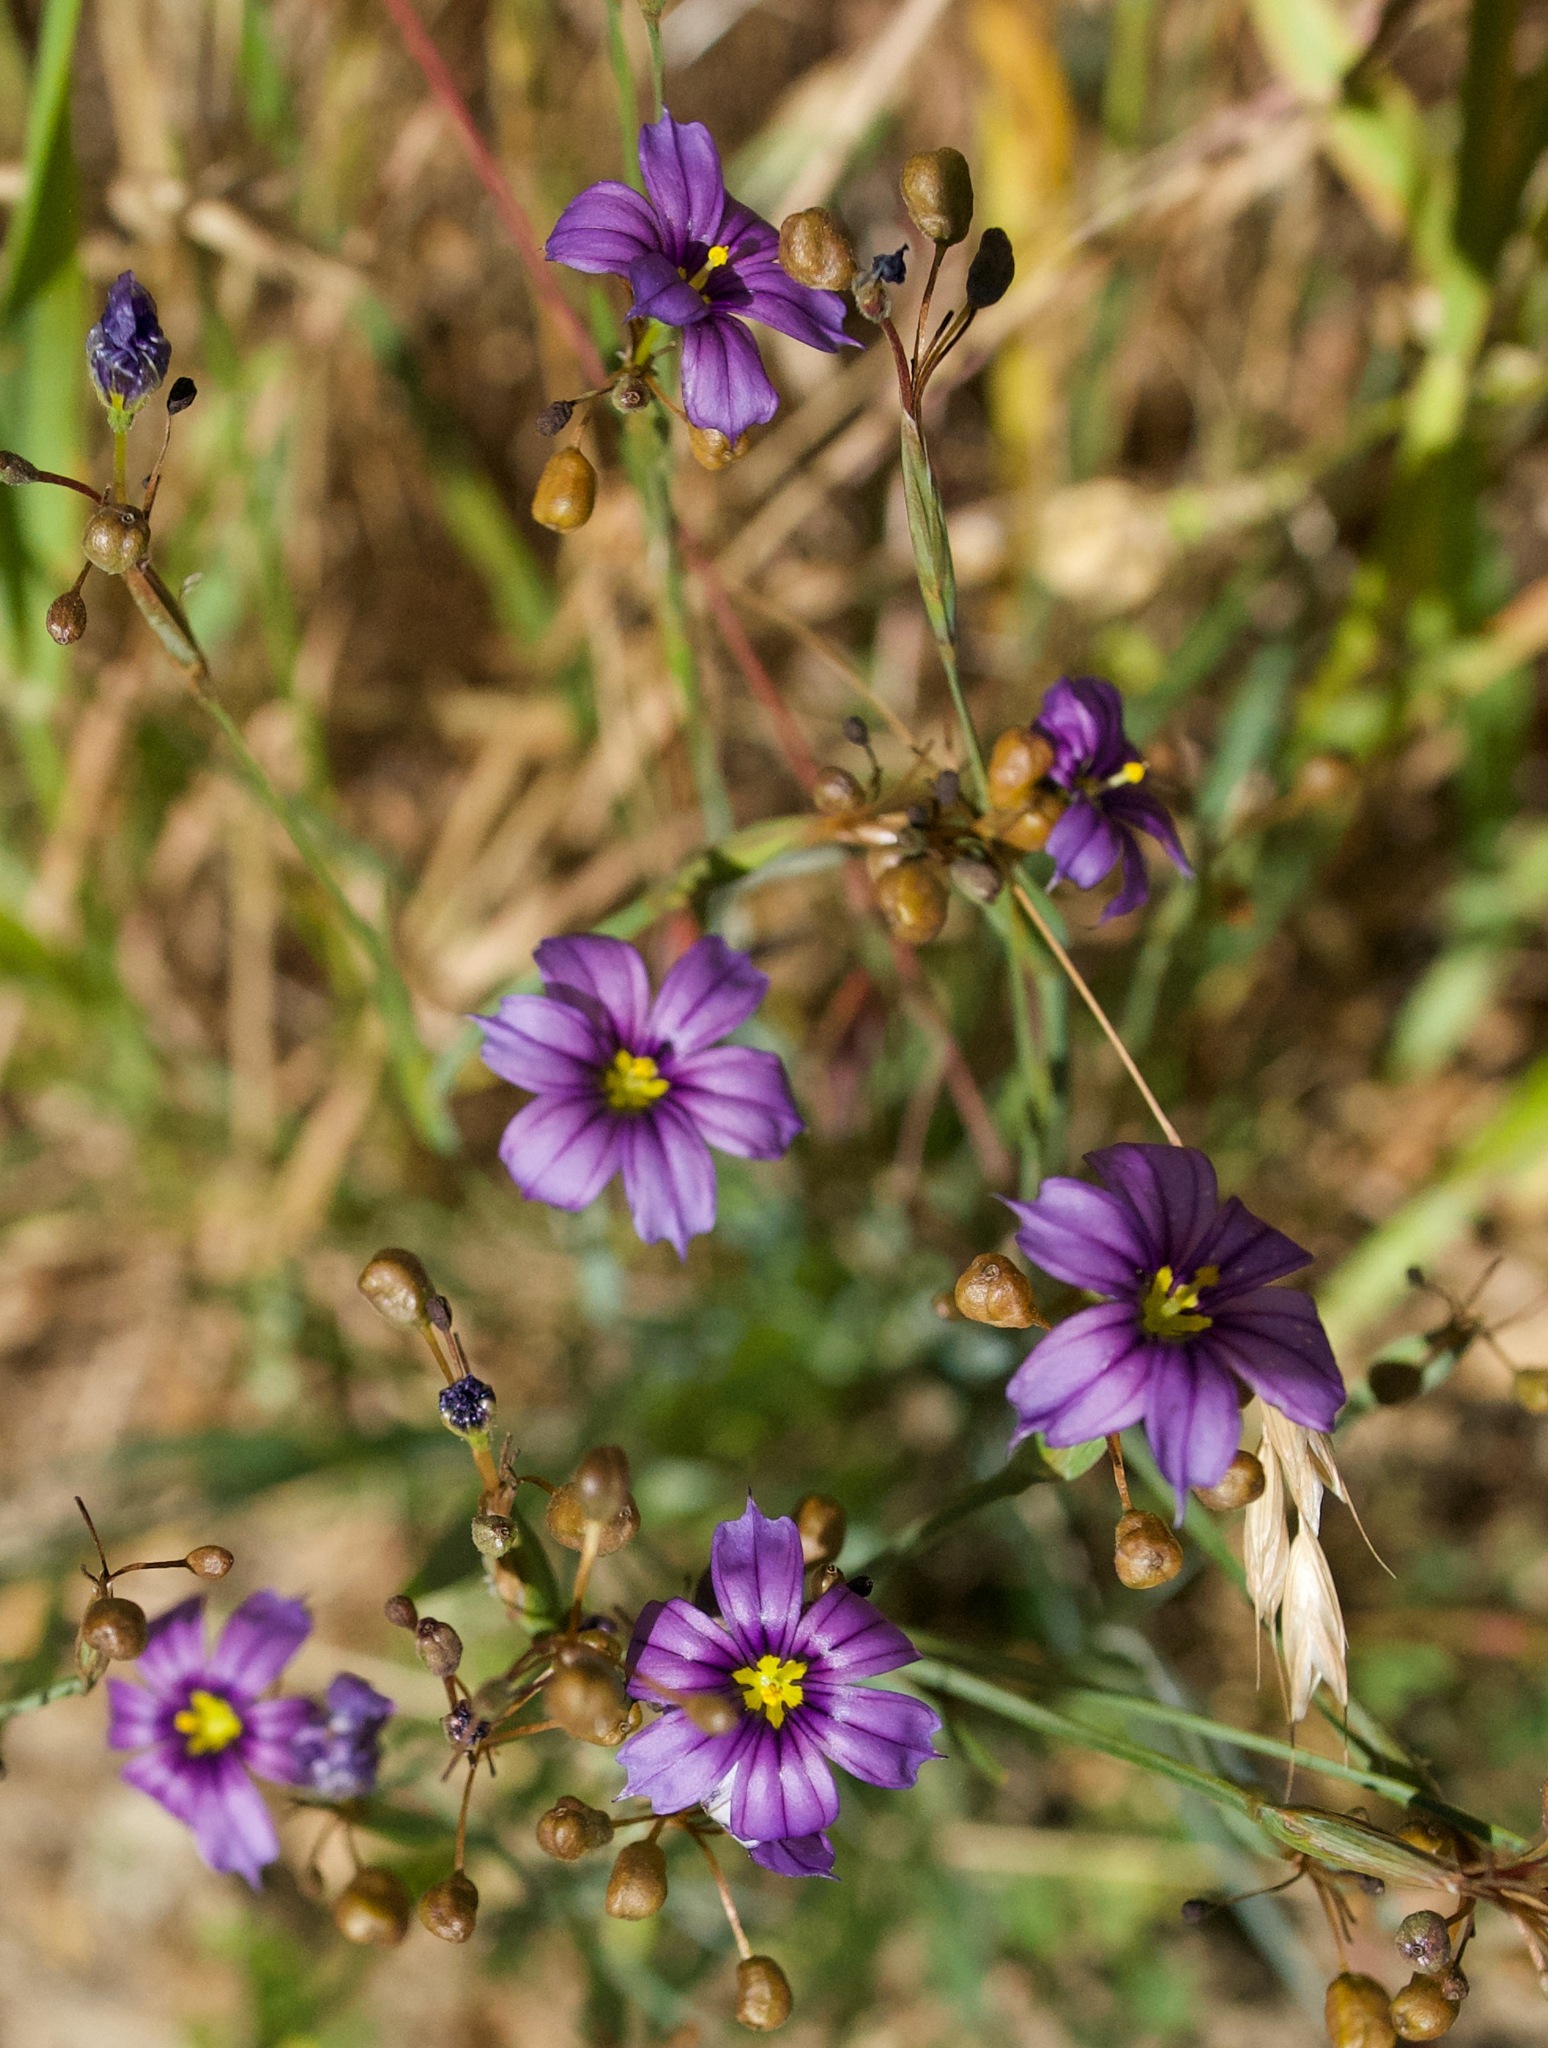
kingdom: Plantae
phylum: Tracheophyta
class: Liliopsida
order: Asparagales
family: Iridaceae
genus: Sisyrinchium
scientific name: Sisyrinchium bellum
